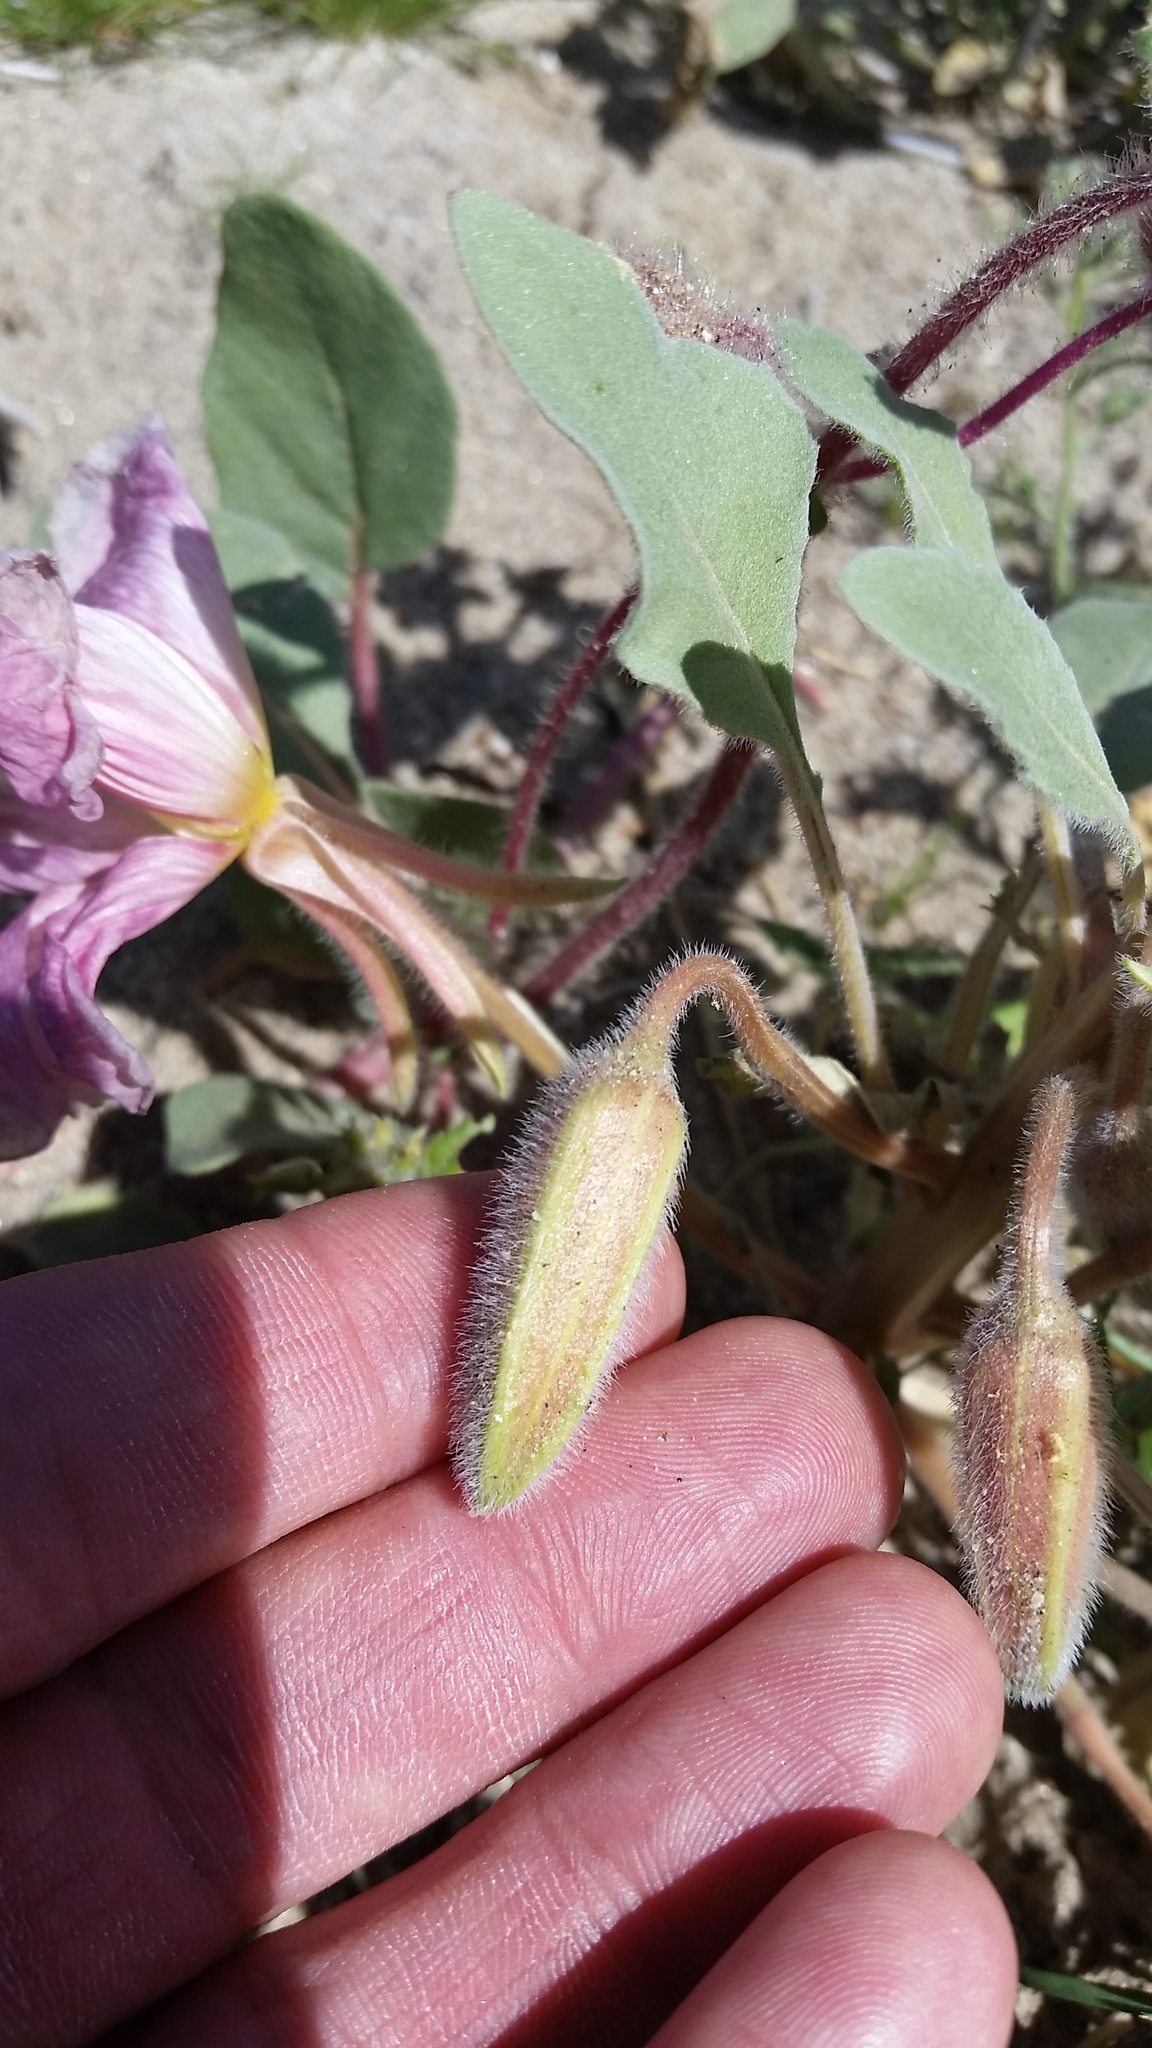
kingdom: Plantae
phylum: Tracheophyta
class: Magnoliopsida
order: Myrtales
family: Onagraceae
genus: Oenothera
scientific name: Oenothera deltoides
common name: Basket evening-primrose
